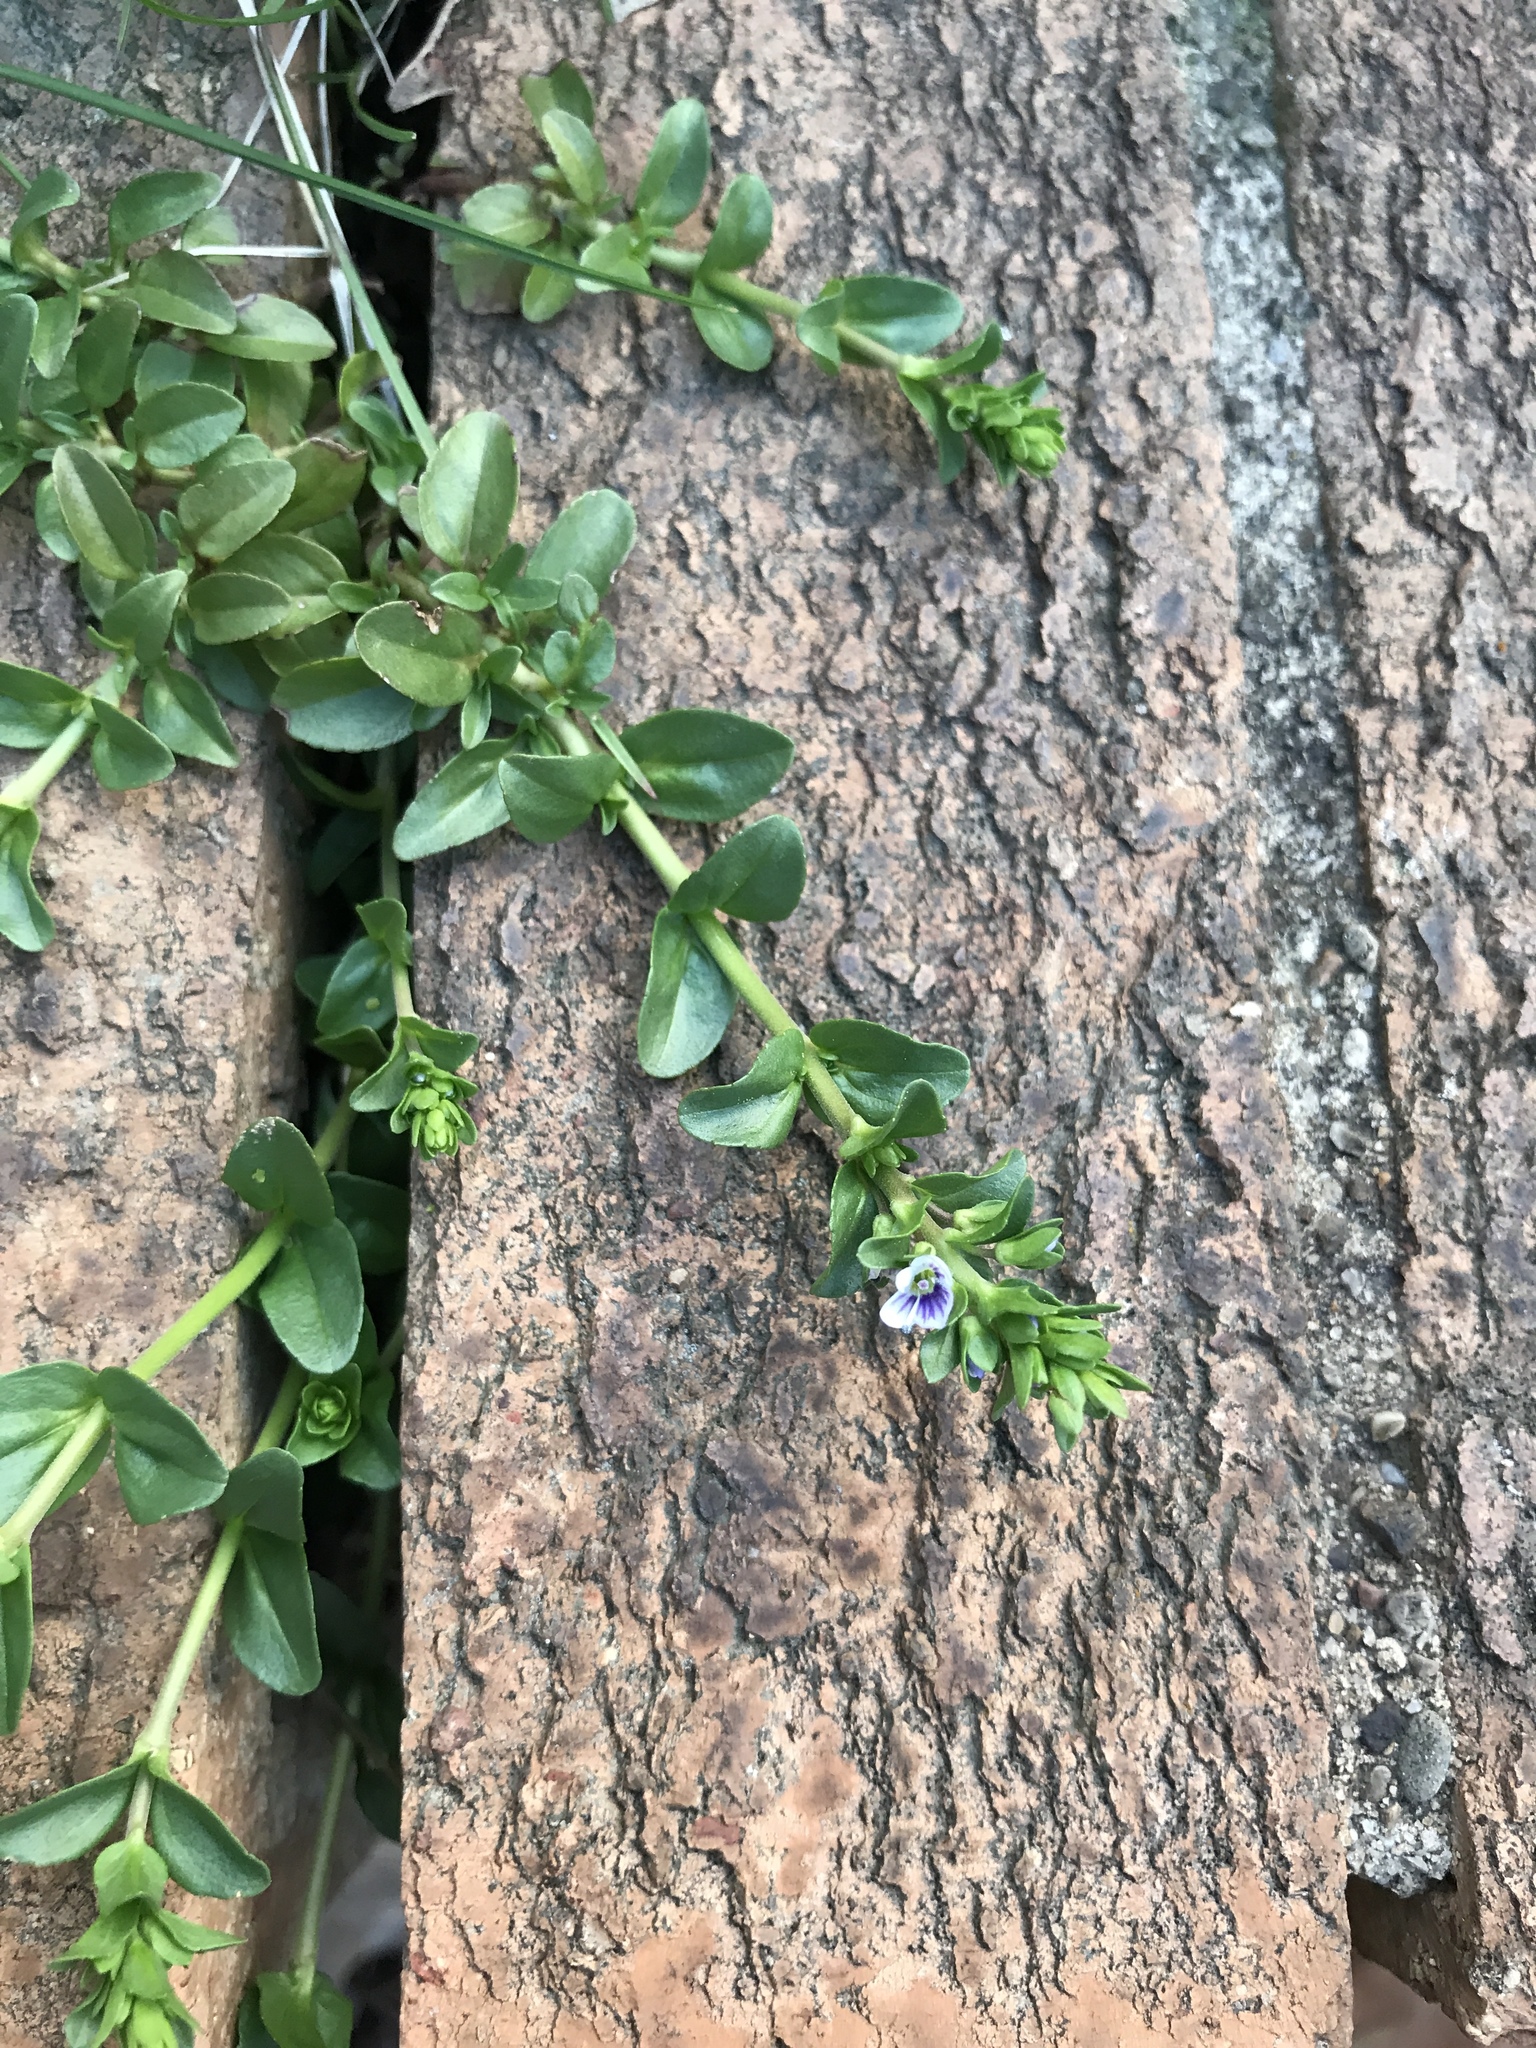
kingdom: Plantae
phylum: Tracheophyta
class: Magnoliopsida
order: Lamiales
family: Plantaginaceae
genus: Veronica
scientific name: Veronica serpyllifolia
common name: Thyme-leaved speedwell
